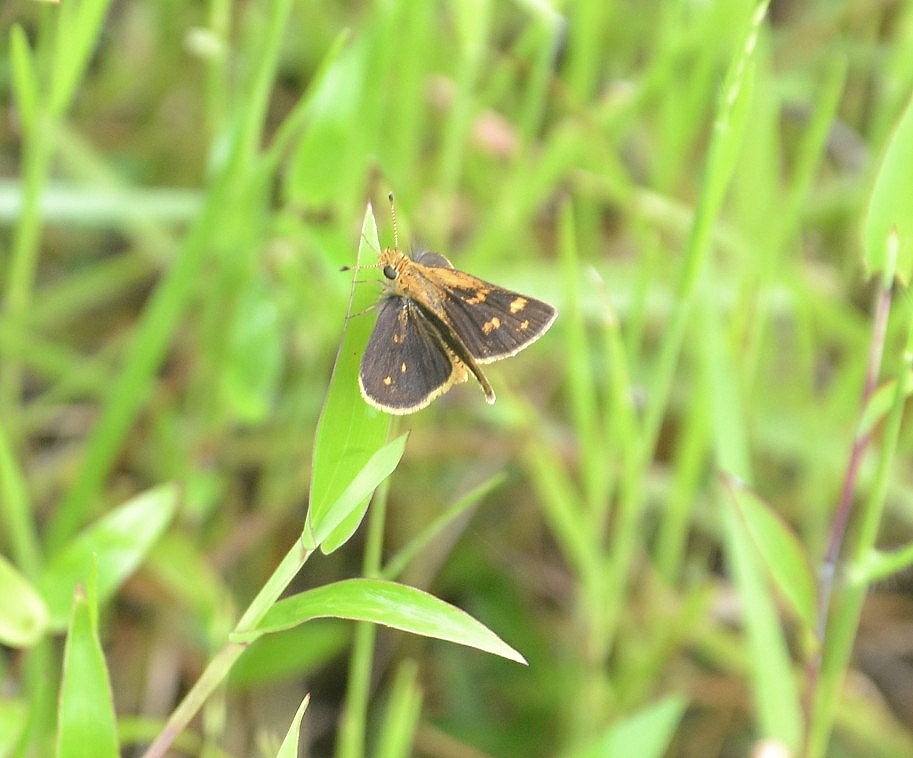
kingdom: Animalia
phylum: Arthropoda
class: Insecta
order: Lepidoptera
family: Hesperiidae
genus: Taractrocera
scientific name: Taractrocera ceramas
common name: Tamil grass dart
